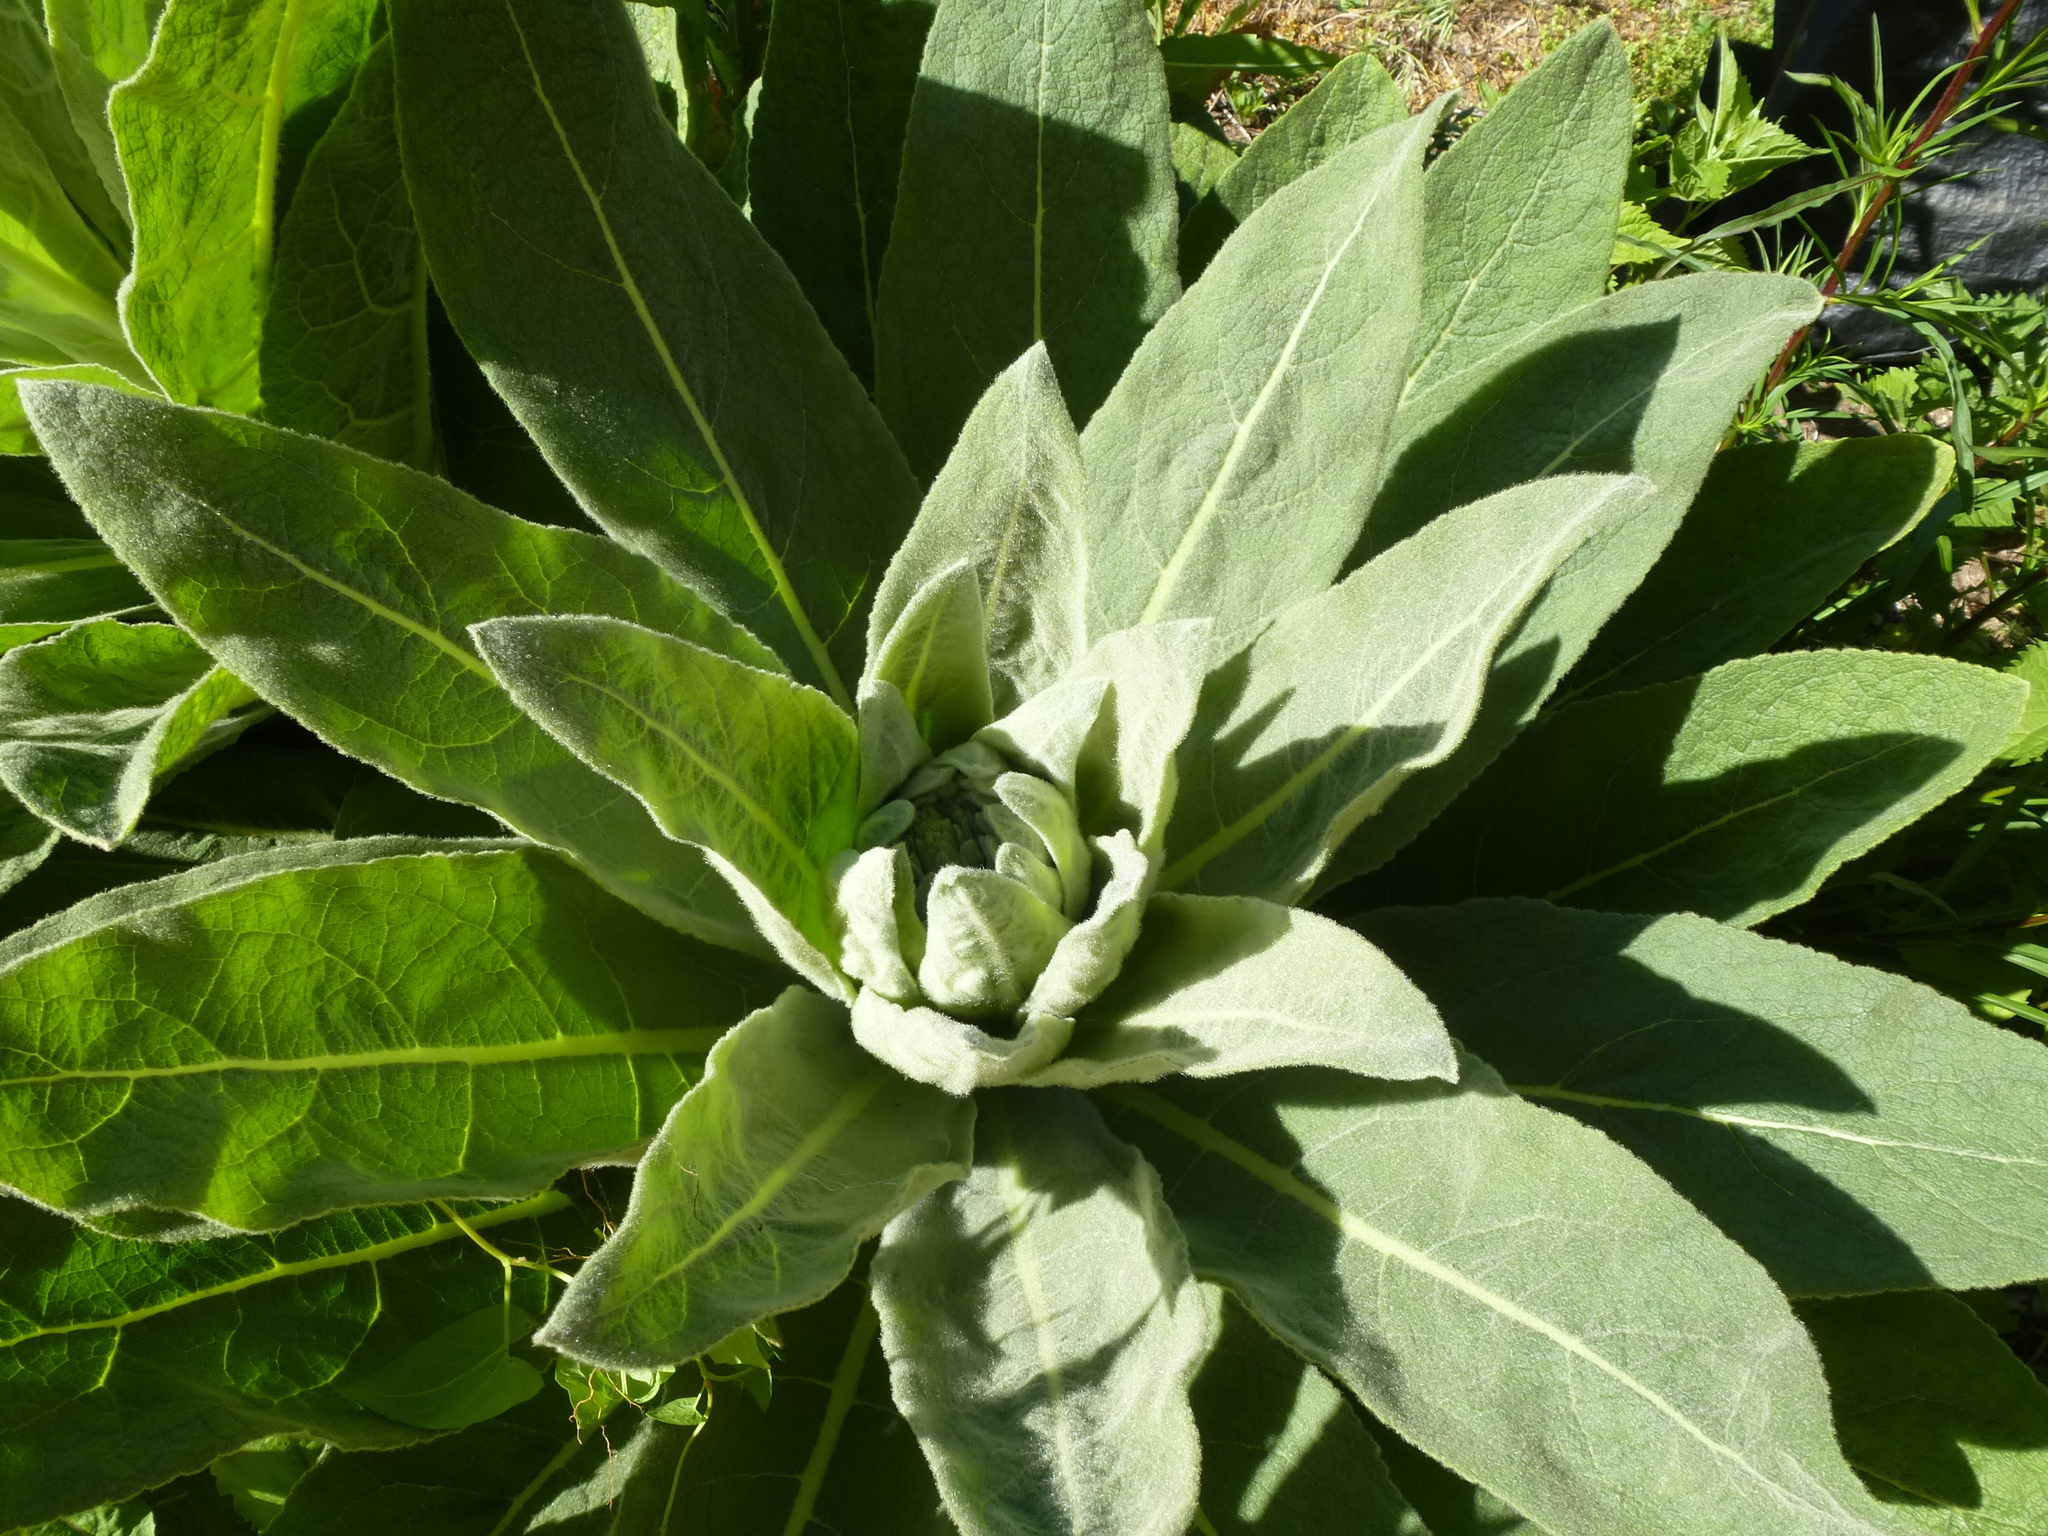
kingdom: Plantae
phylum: Tracheophyta
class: Magnoliopsida
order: Lamiales
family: Scrophulariaceae
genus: Verbascum
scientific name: Verbascum thapsus
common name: Common mullein
